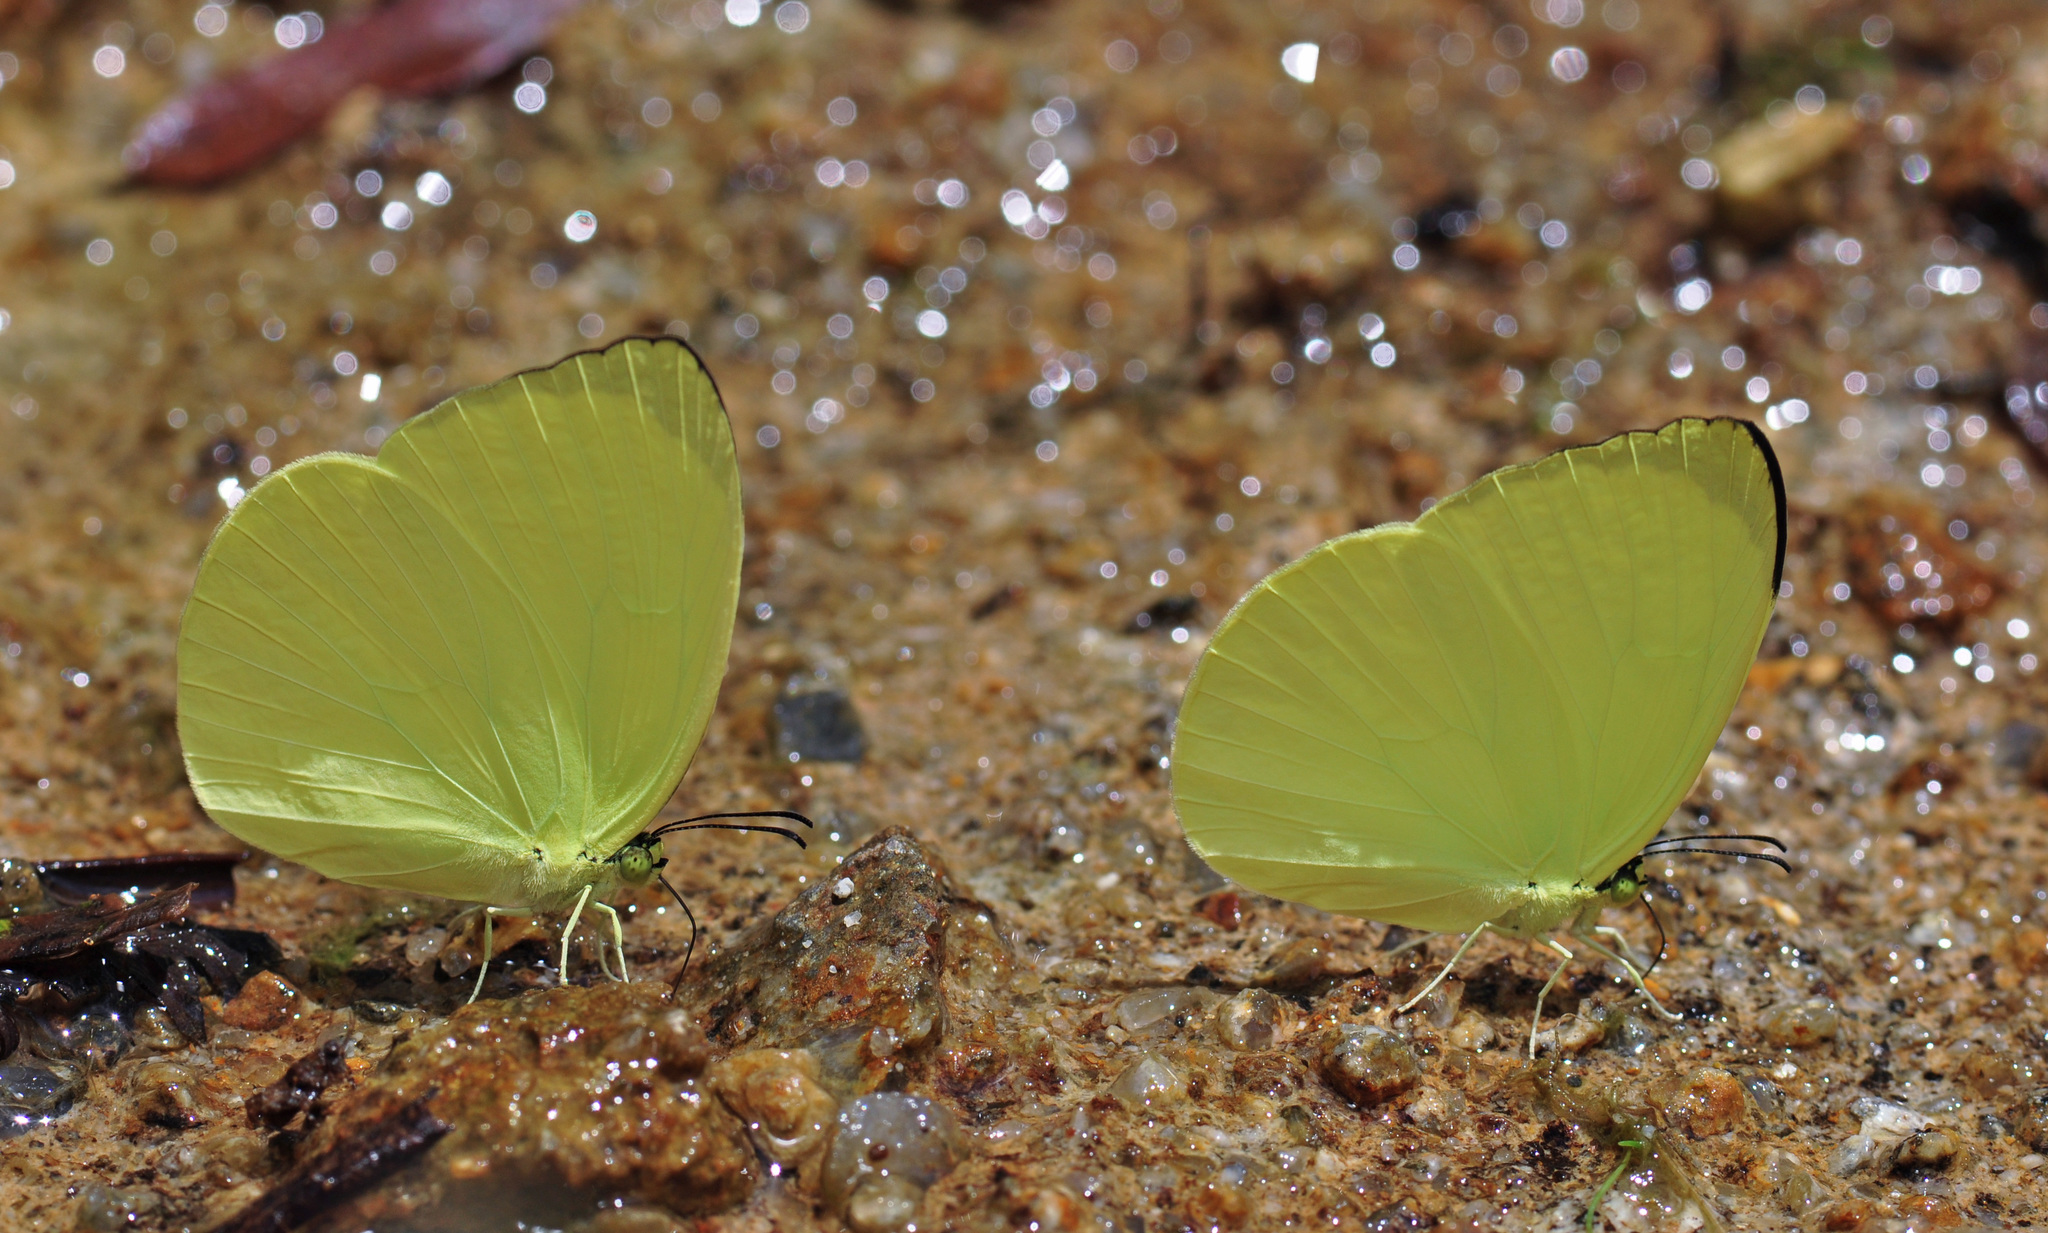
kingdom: Animalia
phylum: Arthropoda
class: Insecta
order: Lepidoptera
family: Pieridae
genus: Gandaca
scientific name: Gandaca harina
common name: Tree yellow
